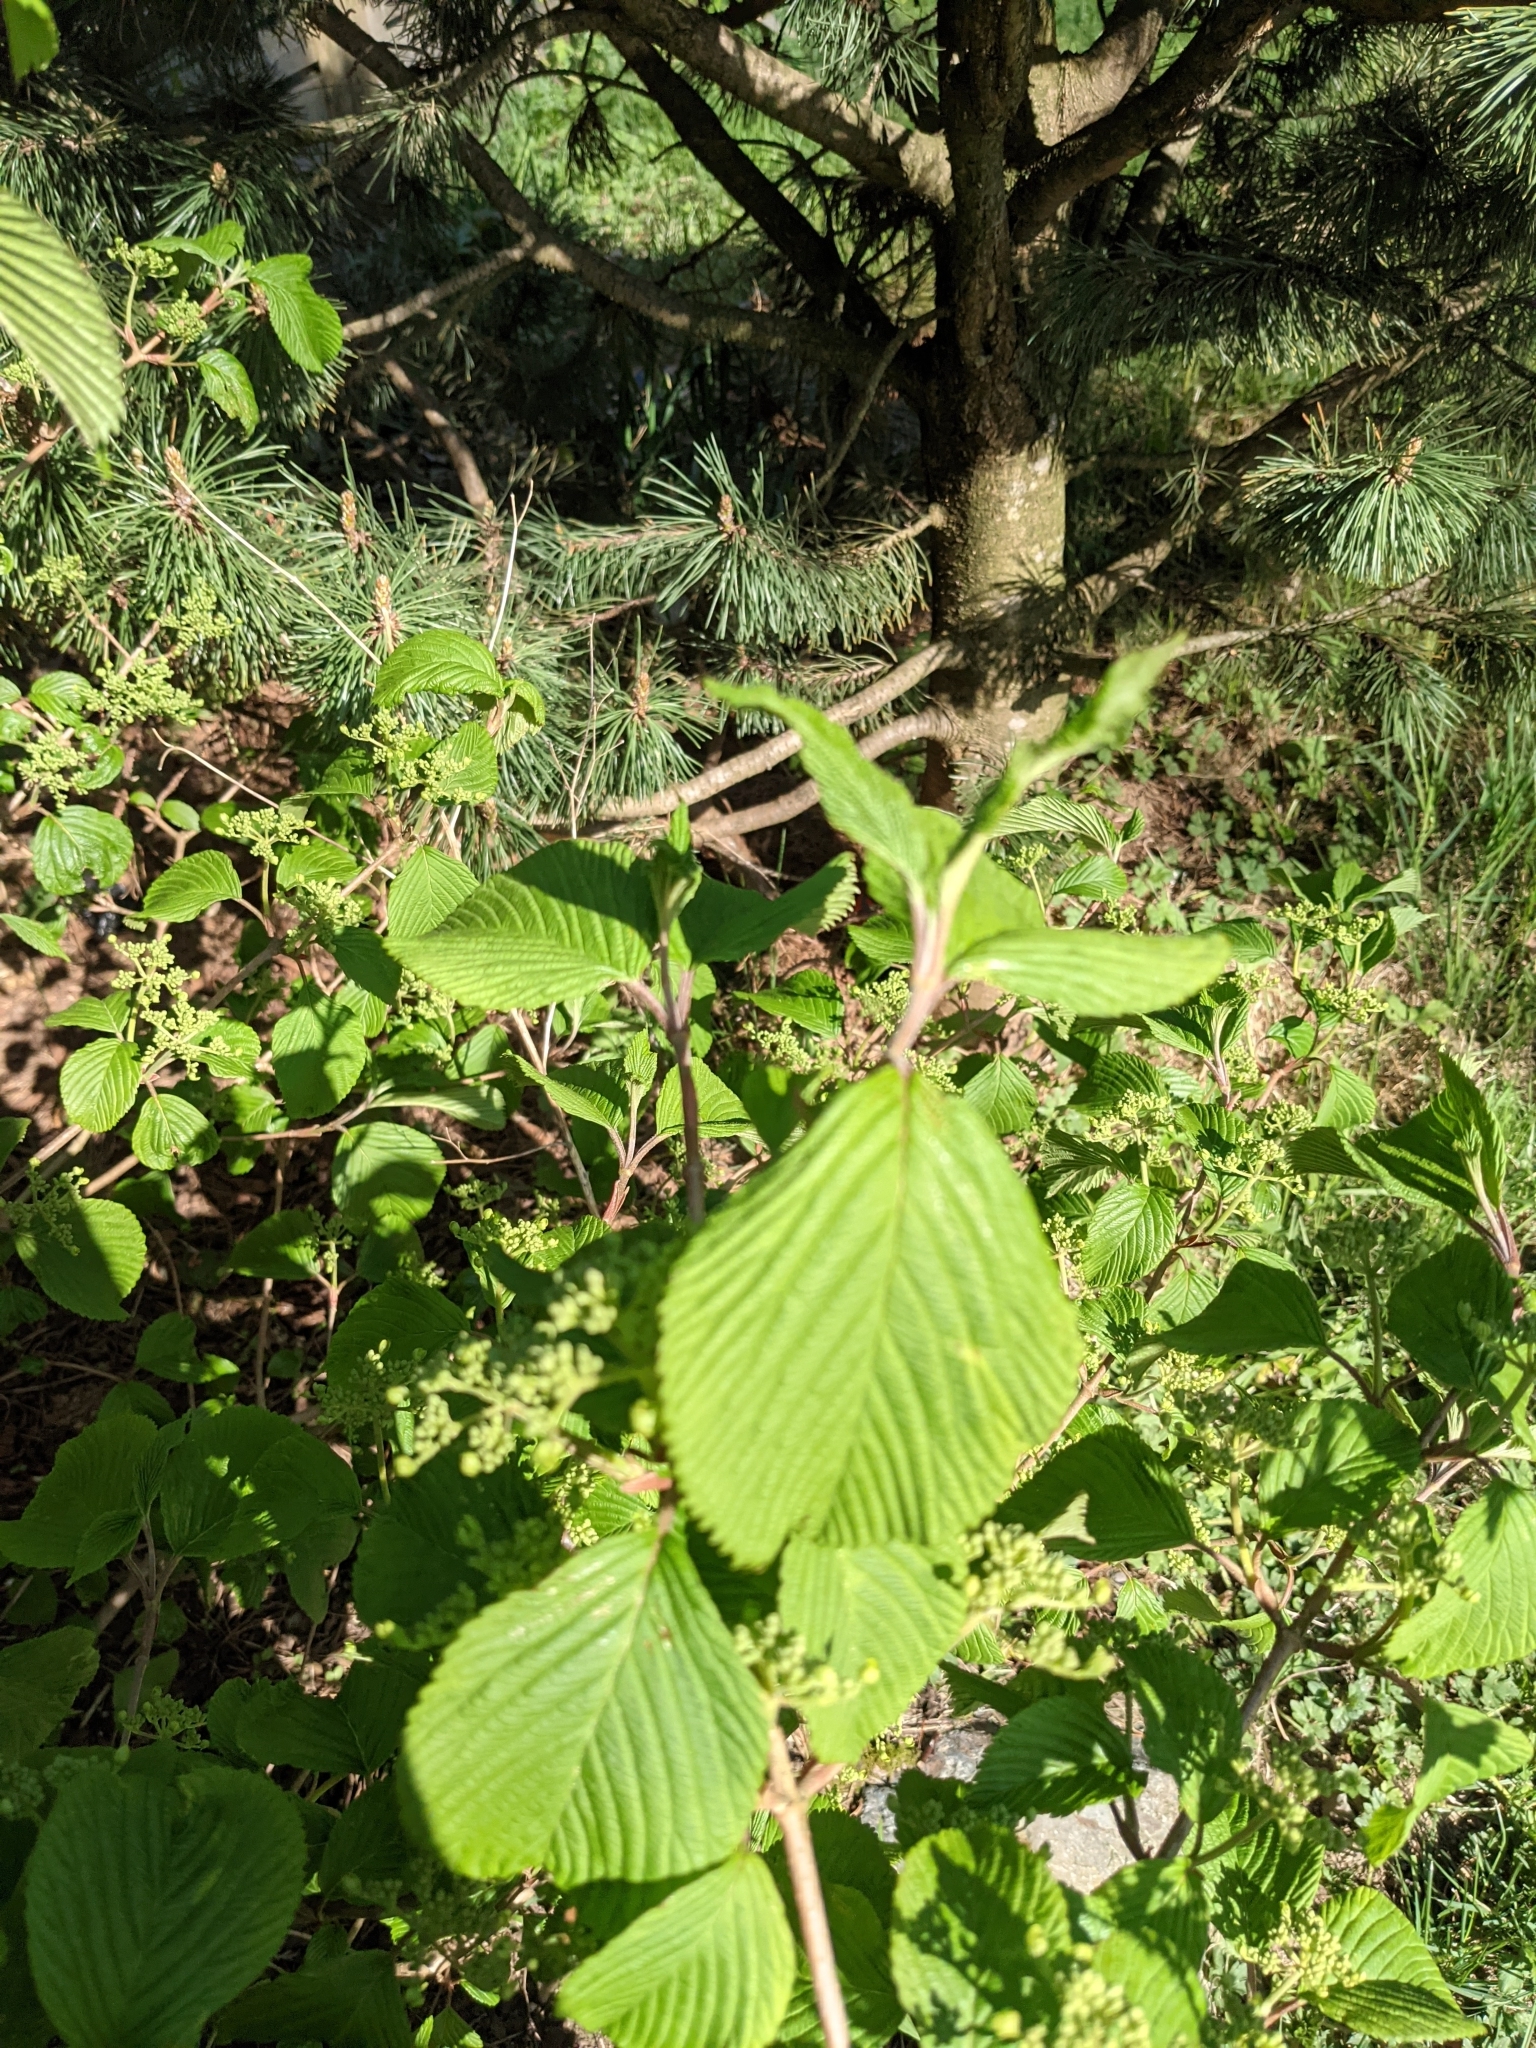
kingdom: Plantae
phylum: Tracheophyta
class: Magnoliopsida
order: Dipsacales
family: Viburnaceae
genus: Viburnum
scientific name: Viburnum plicatum
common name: Japanese snowball
